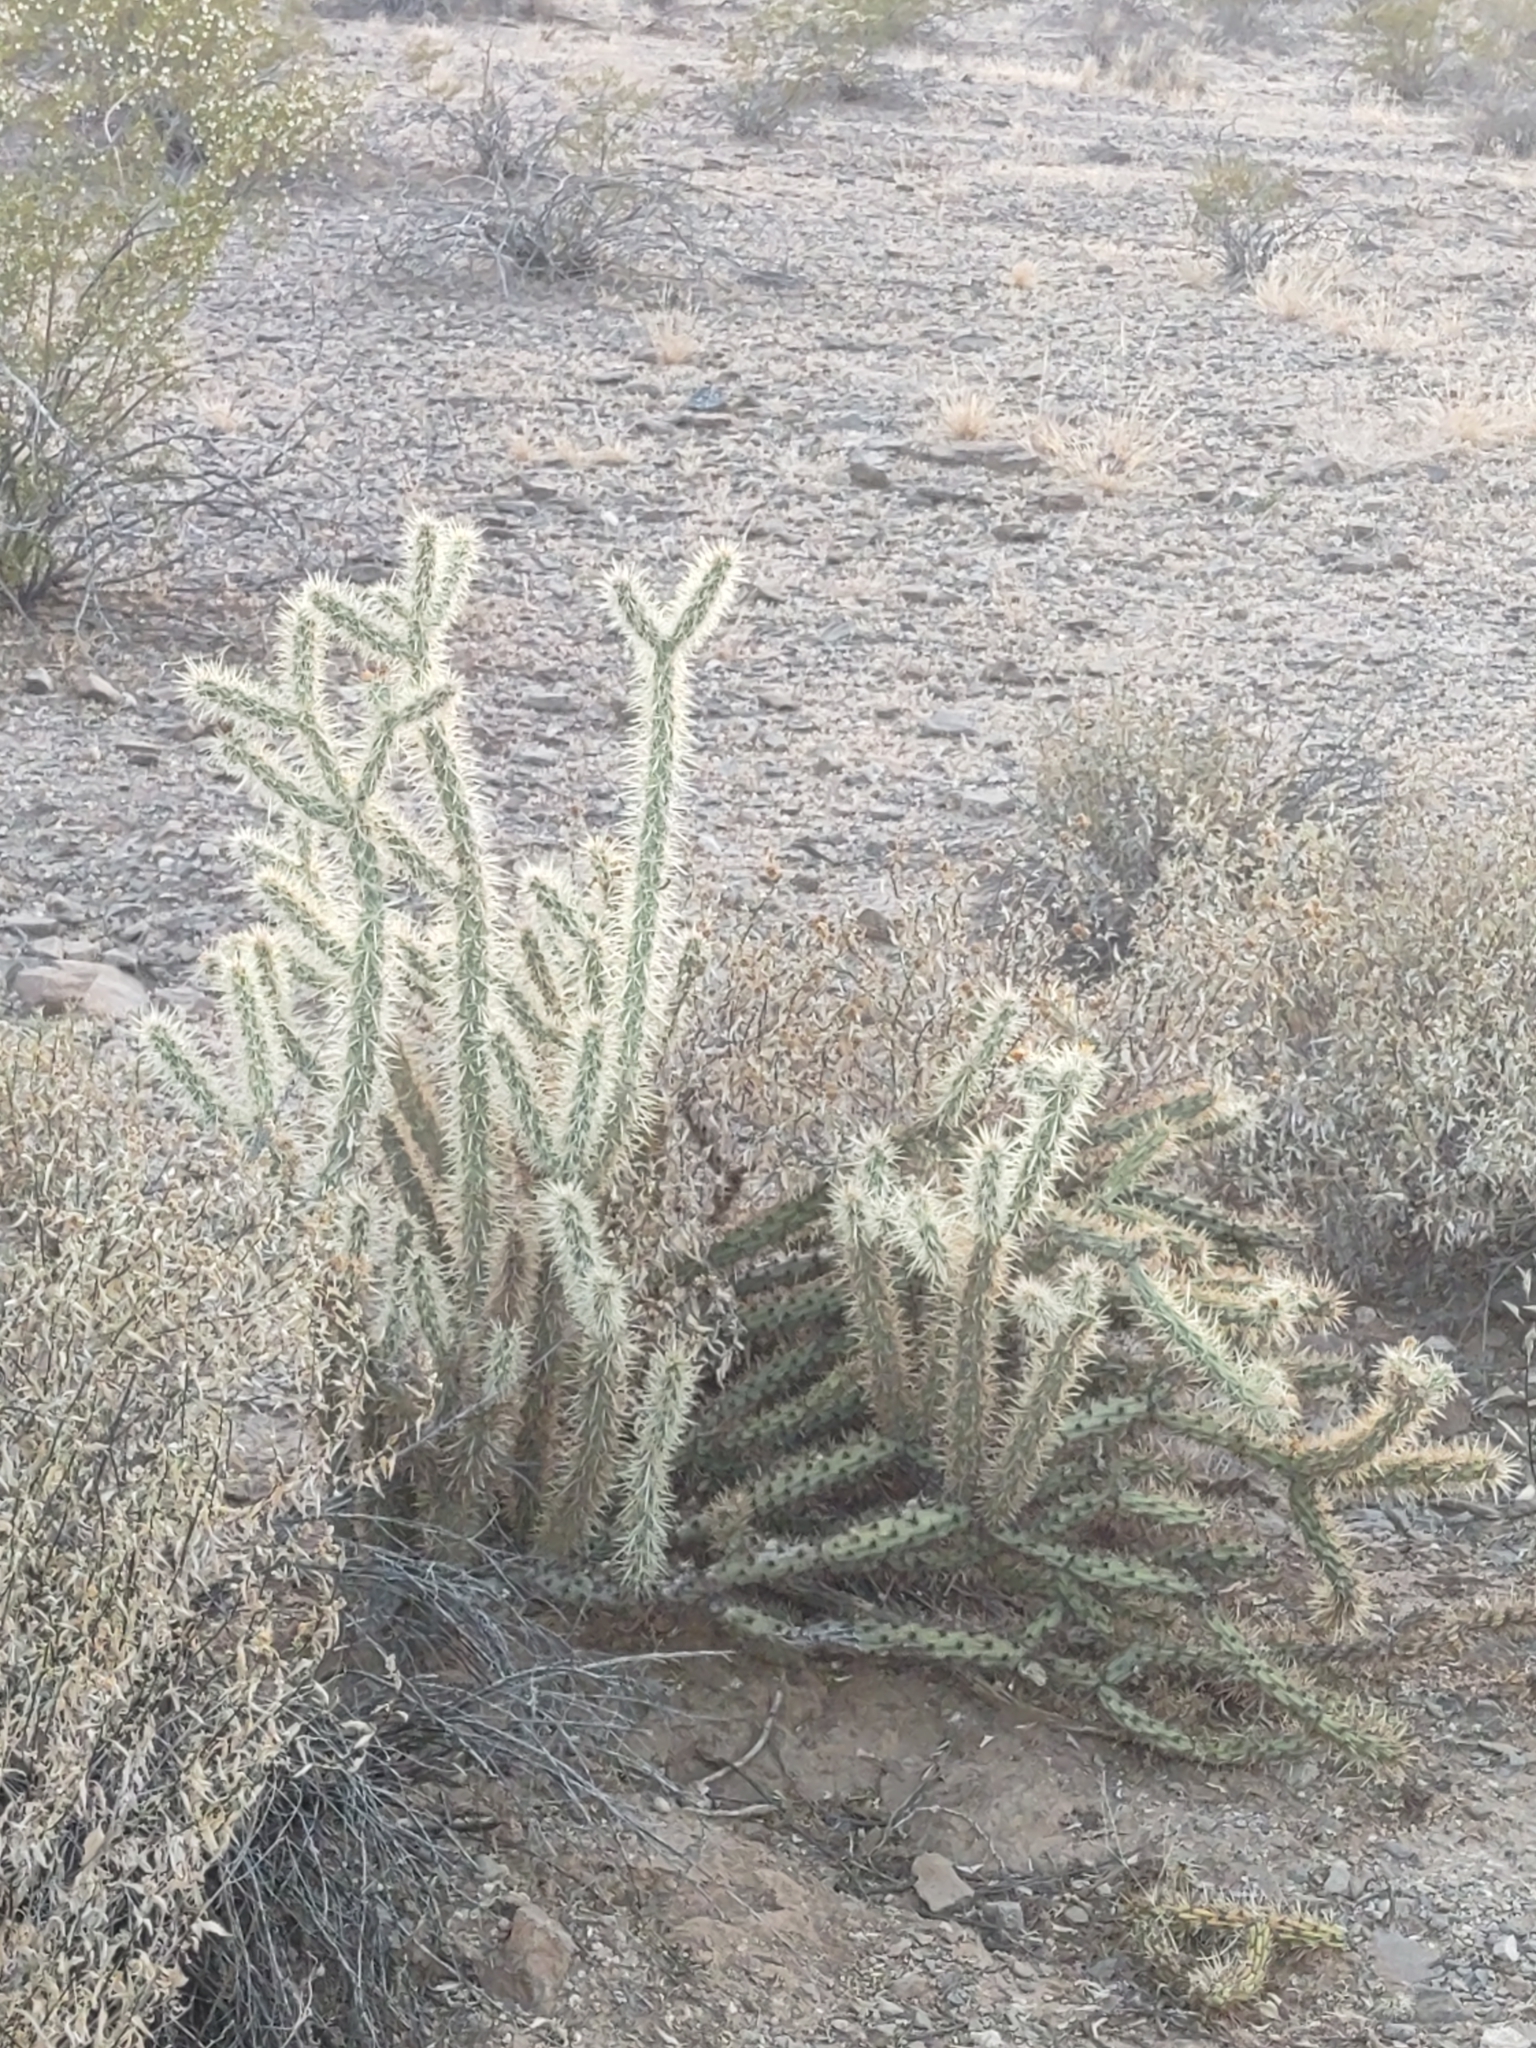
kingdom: Plantae
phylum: Tracheophyta
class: Magnoliopsida
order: Caryophyllales
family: Cactaceae
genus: Cylindropuntia
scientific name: Cylindropuntia acanthocarpa
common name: Buckhorn cholla
